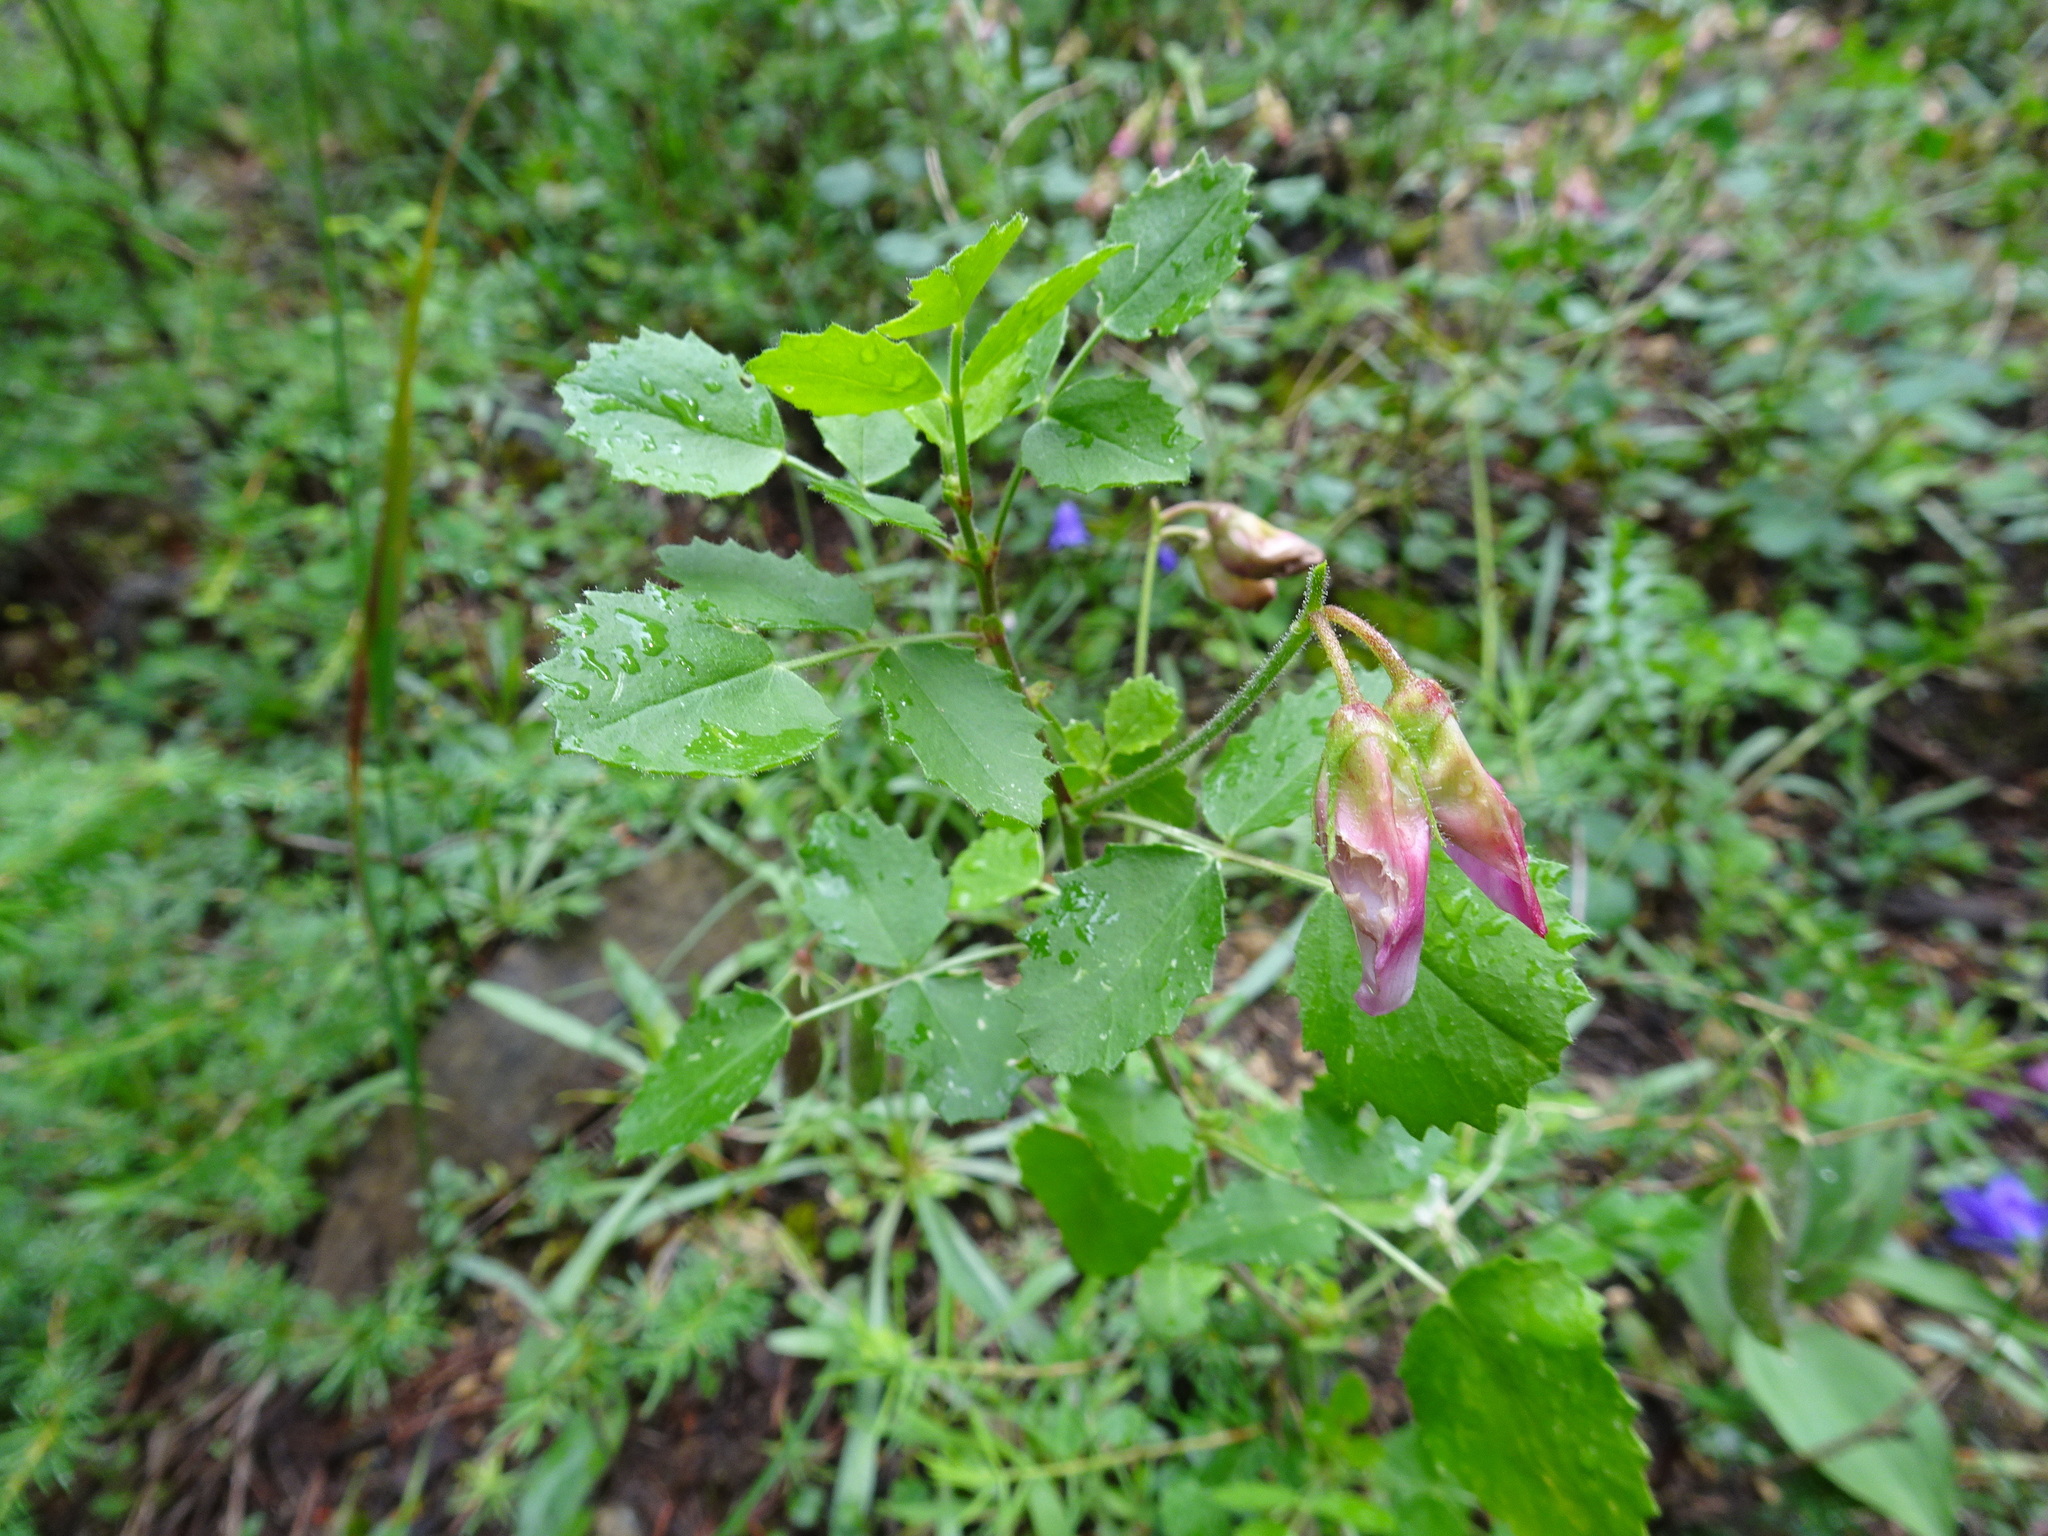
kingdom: Plantae
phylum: Tracheophyta
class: Magnoliopsida
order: Fabales
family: Fabaceae
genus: Ononis
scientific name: Ononis rotundifolia
